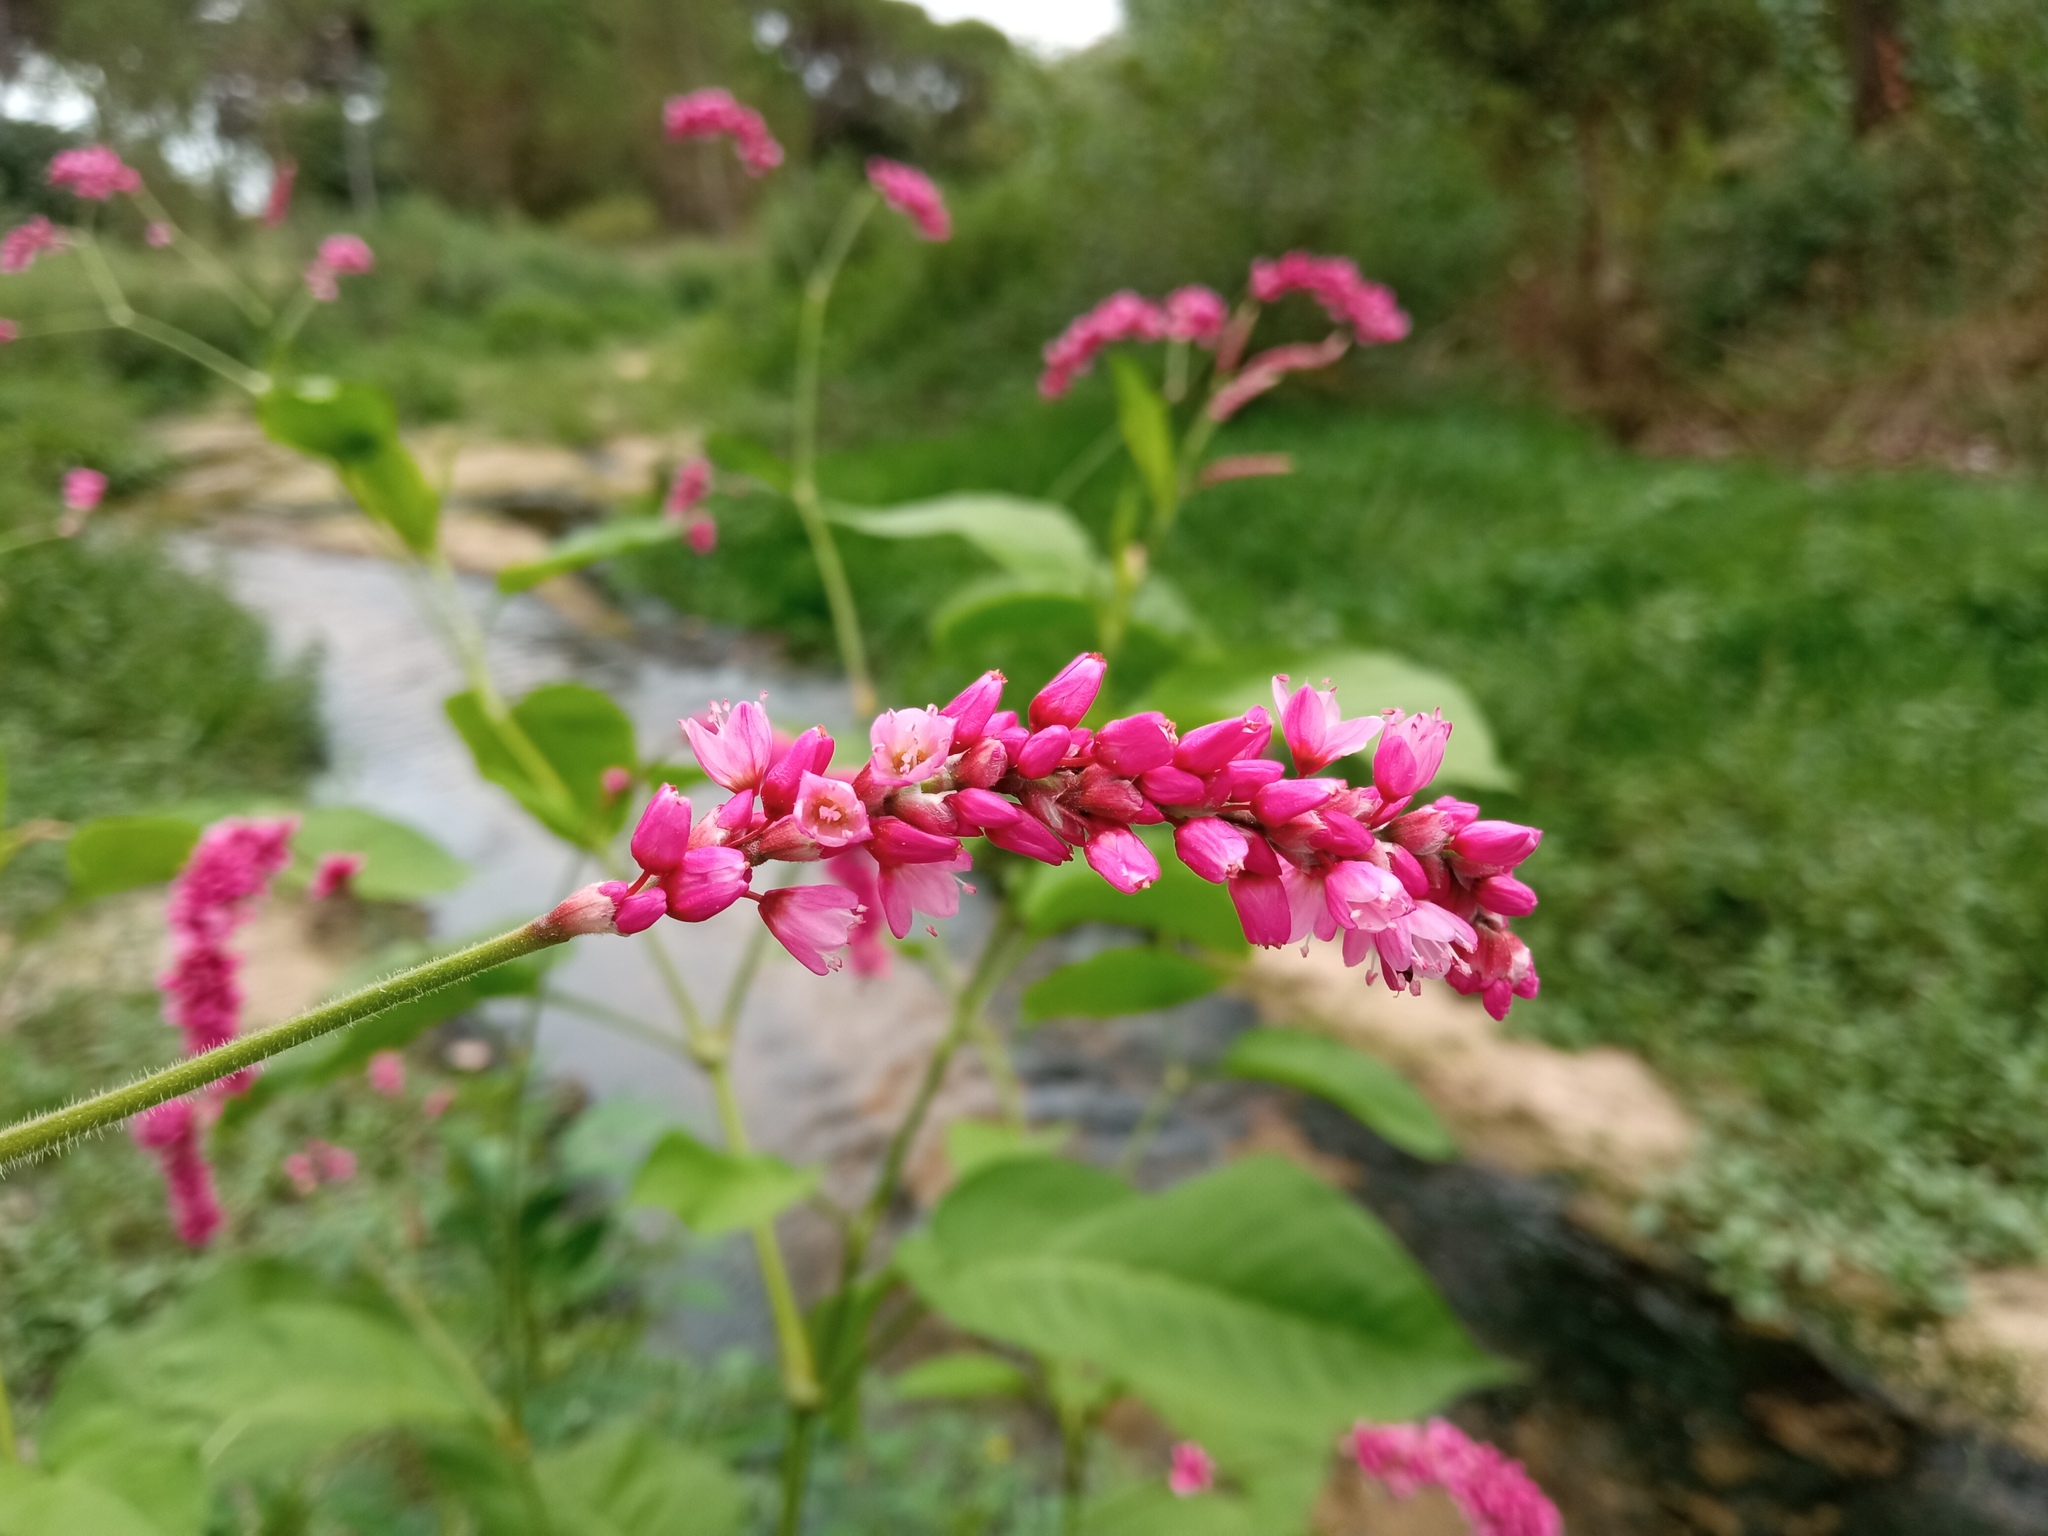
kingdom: Plantae
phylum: Tracheophyta
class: Magnoliopsida
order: Caryophyllales
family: Polygonaceae
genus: Persicaria
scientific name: Persicaria orientalis
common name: Kiss-me-over-the-garden-gate
